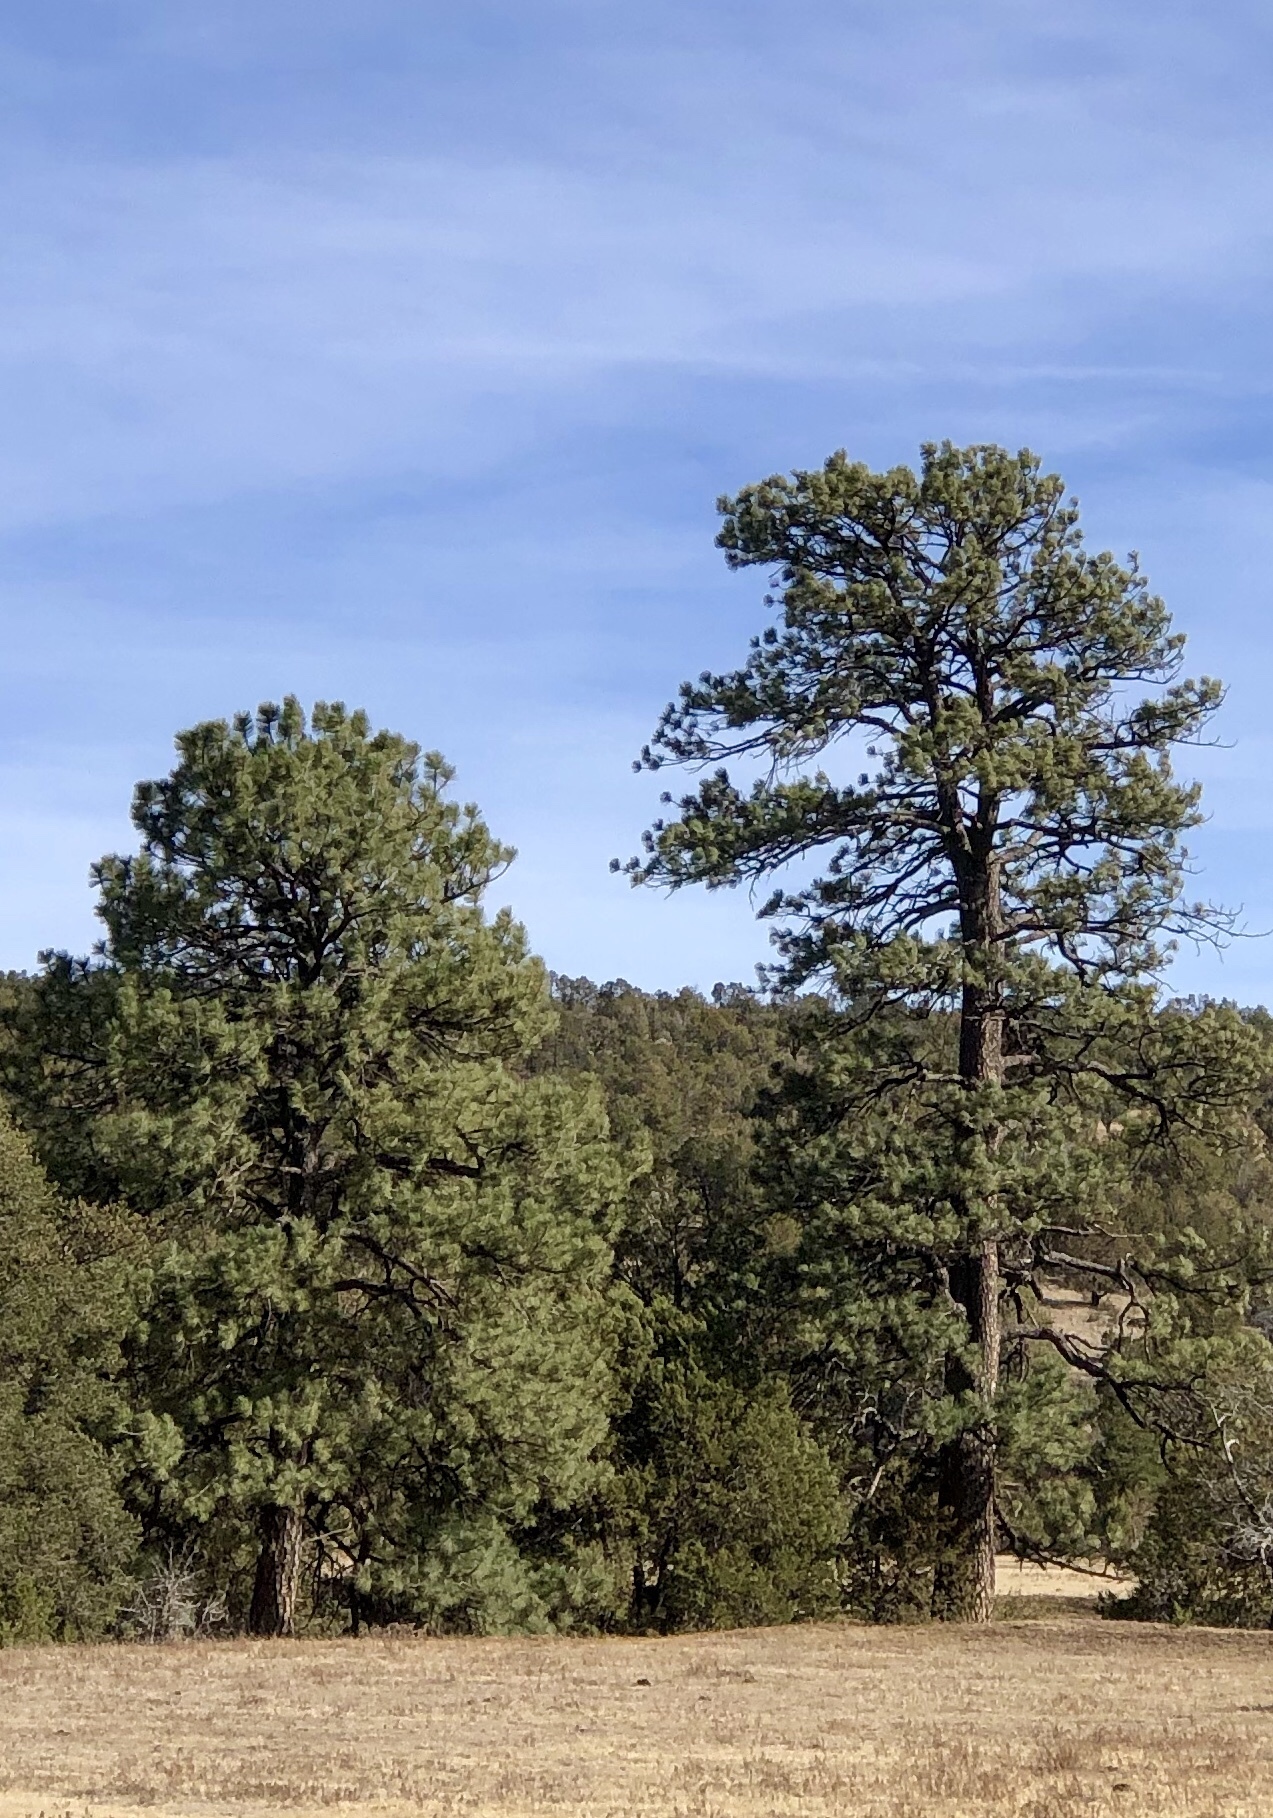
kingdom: Plantae
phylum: Tracheophyta
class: Pinopsida
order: Pinales
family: Pinaceae
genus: Pinus
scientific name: Pinus ponderosa
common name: Western yellow-pine
